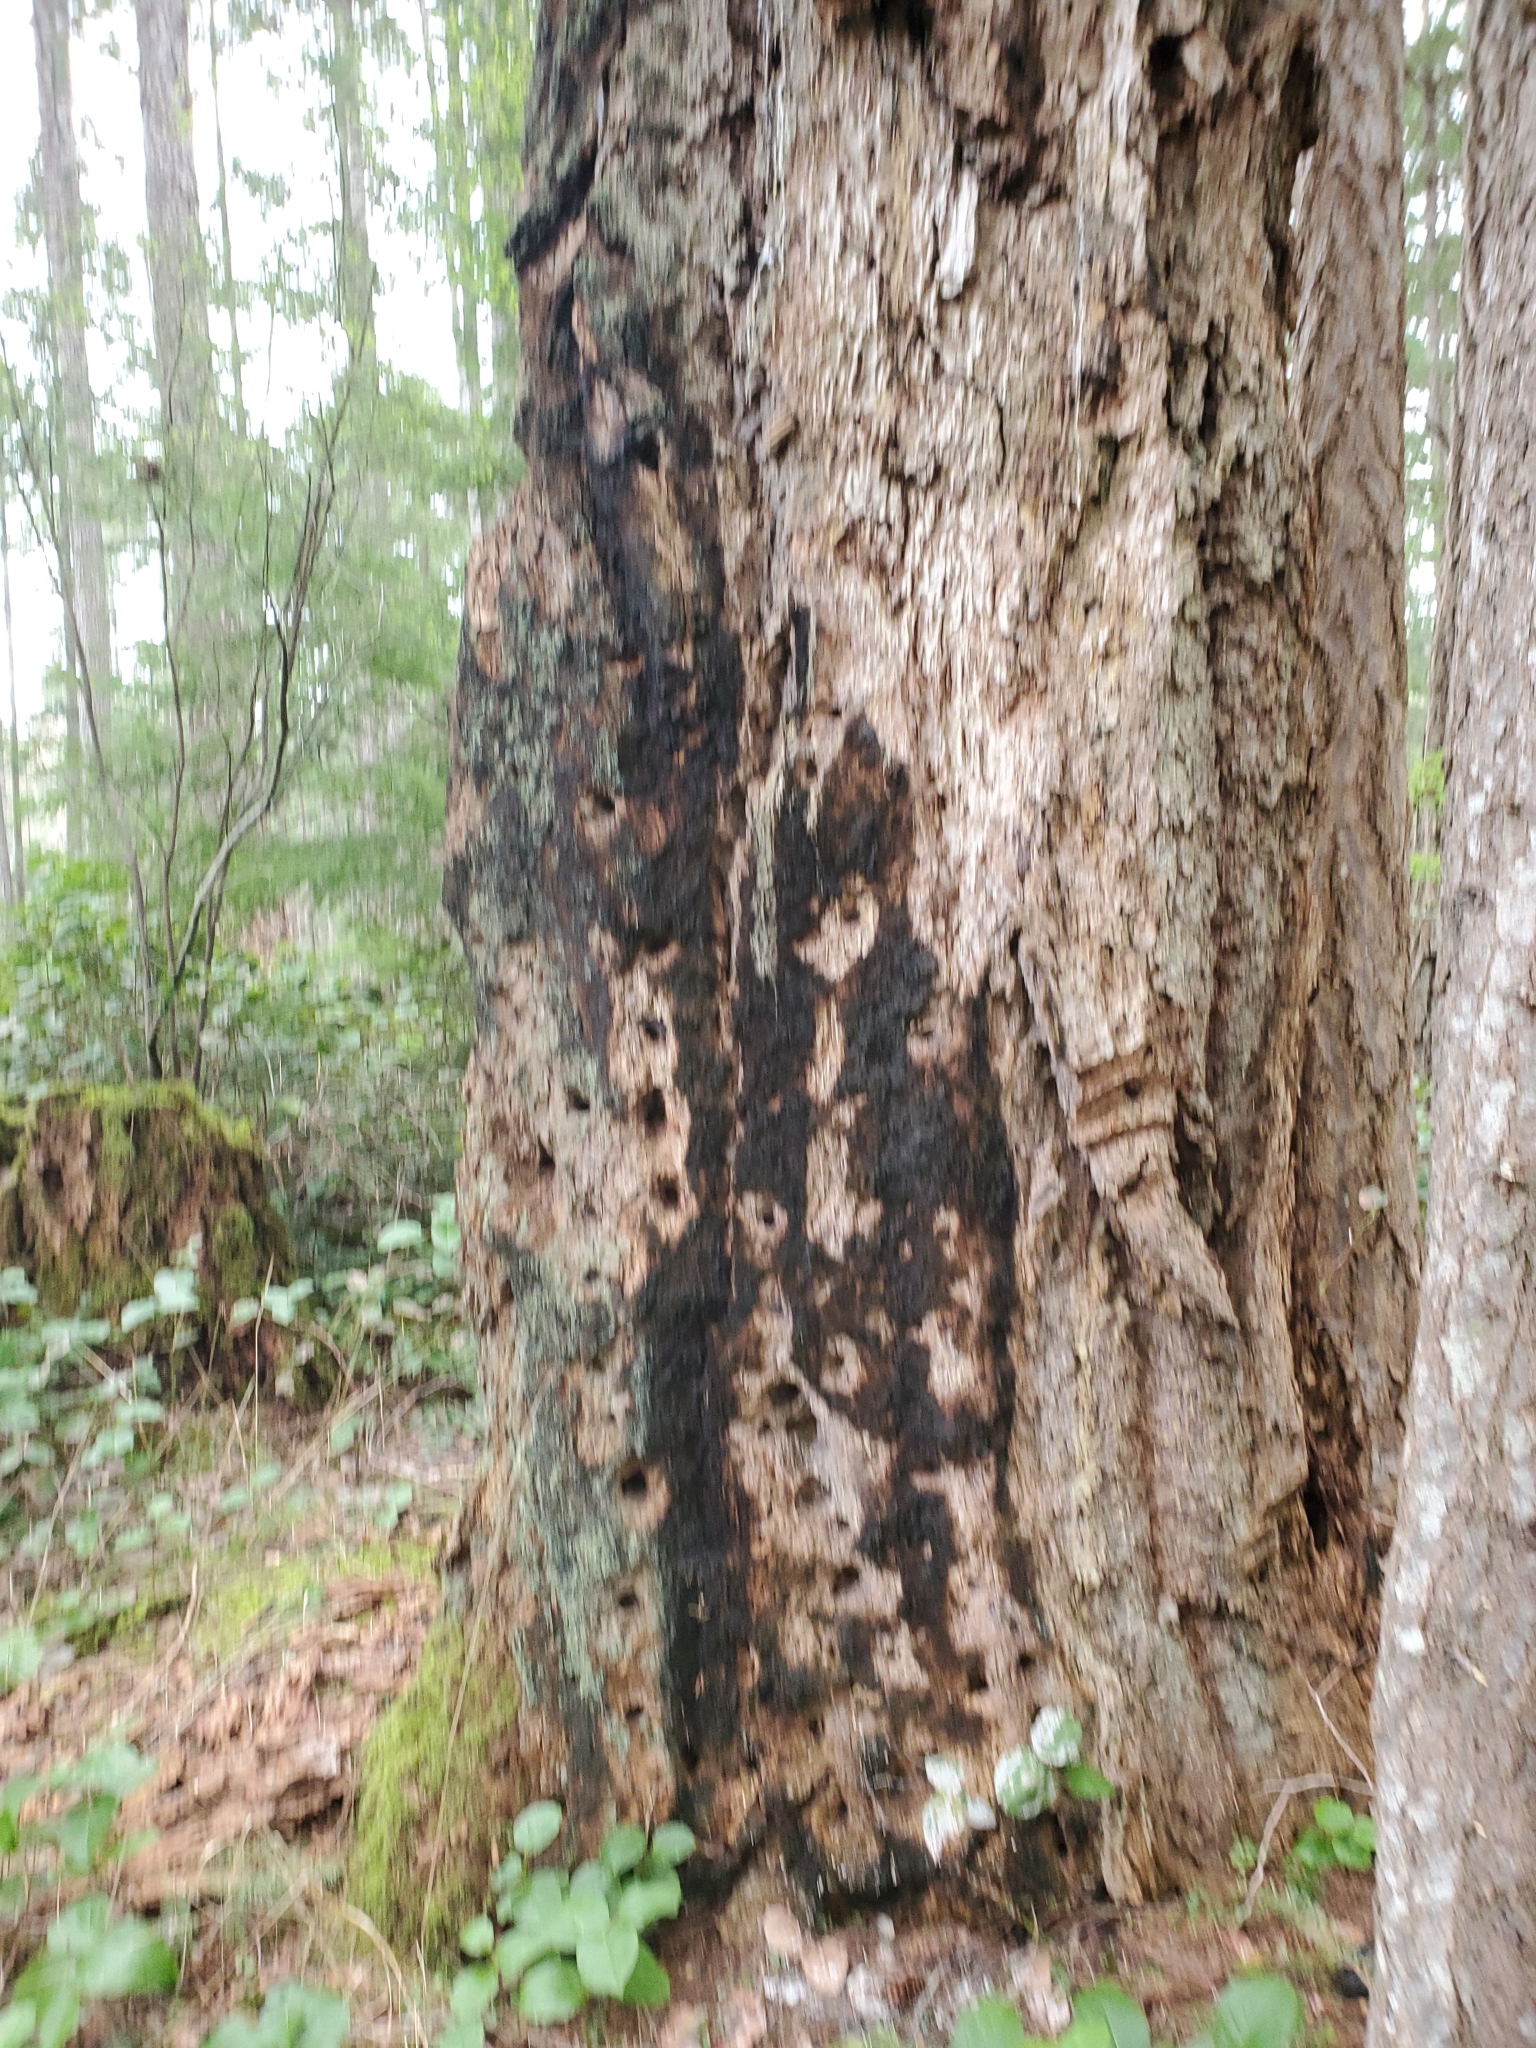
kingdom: Plantae
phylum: Tracheophyta
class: Pinopsida
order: Pinales
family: Pinaceae
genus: Pseudotsuga
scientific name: Pseudotsuga menziesii
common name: Douglas fir
